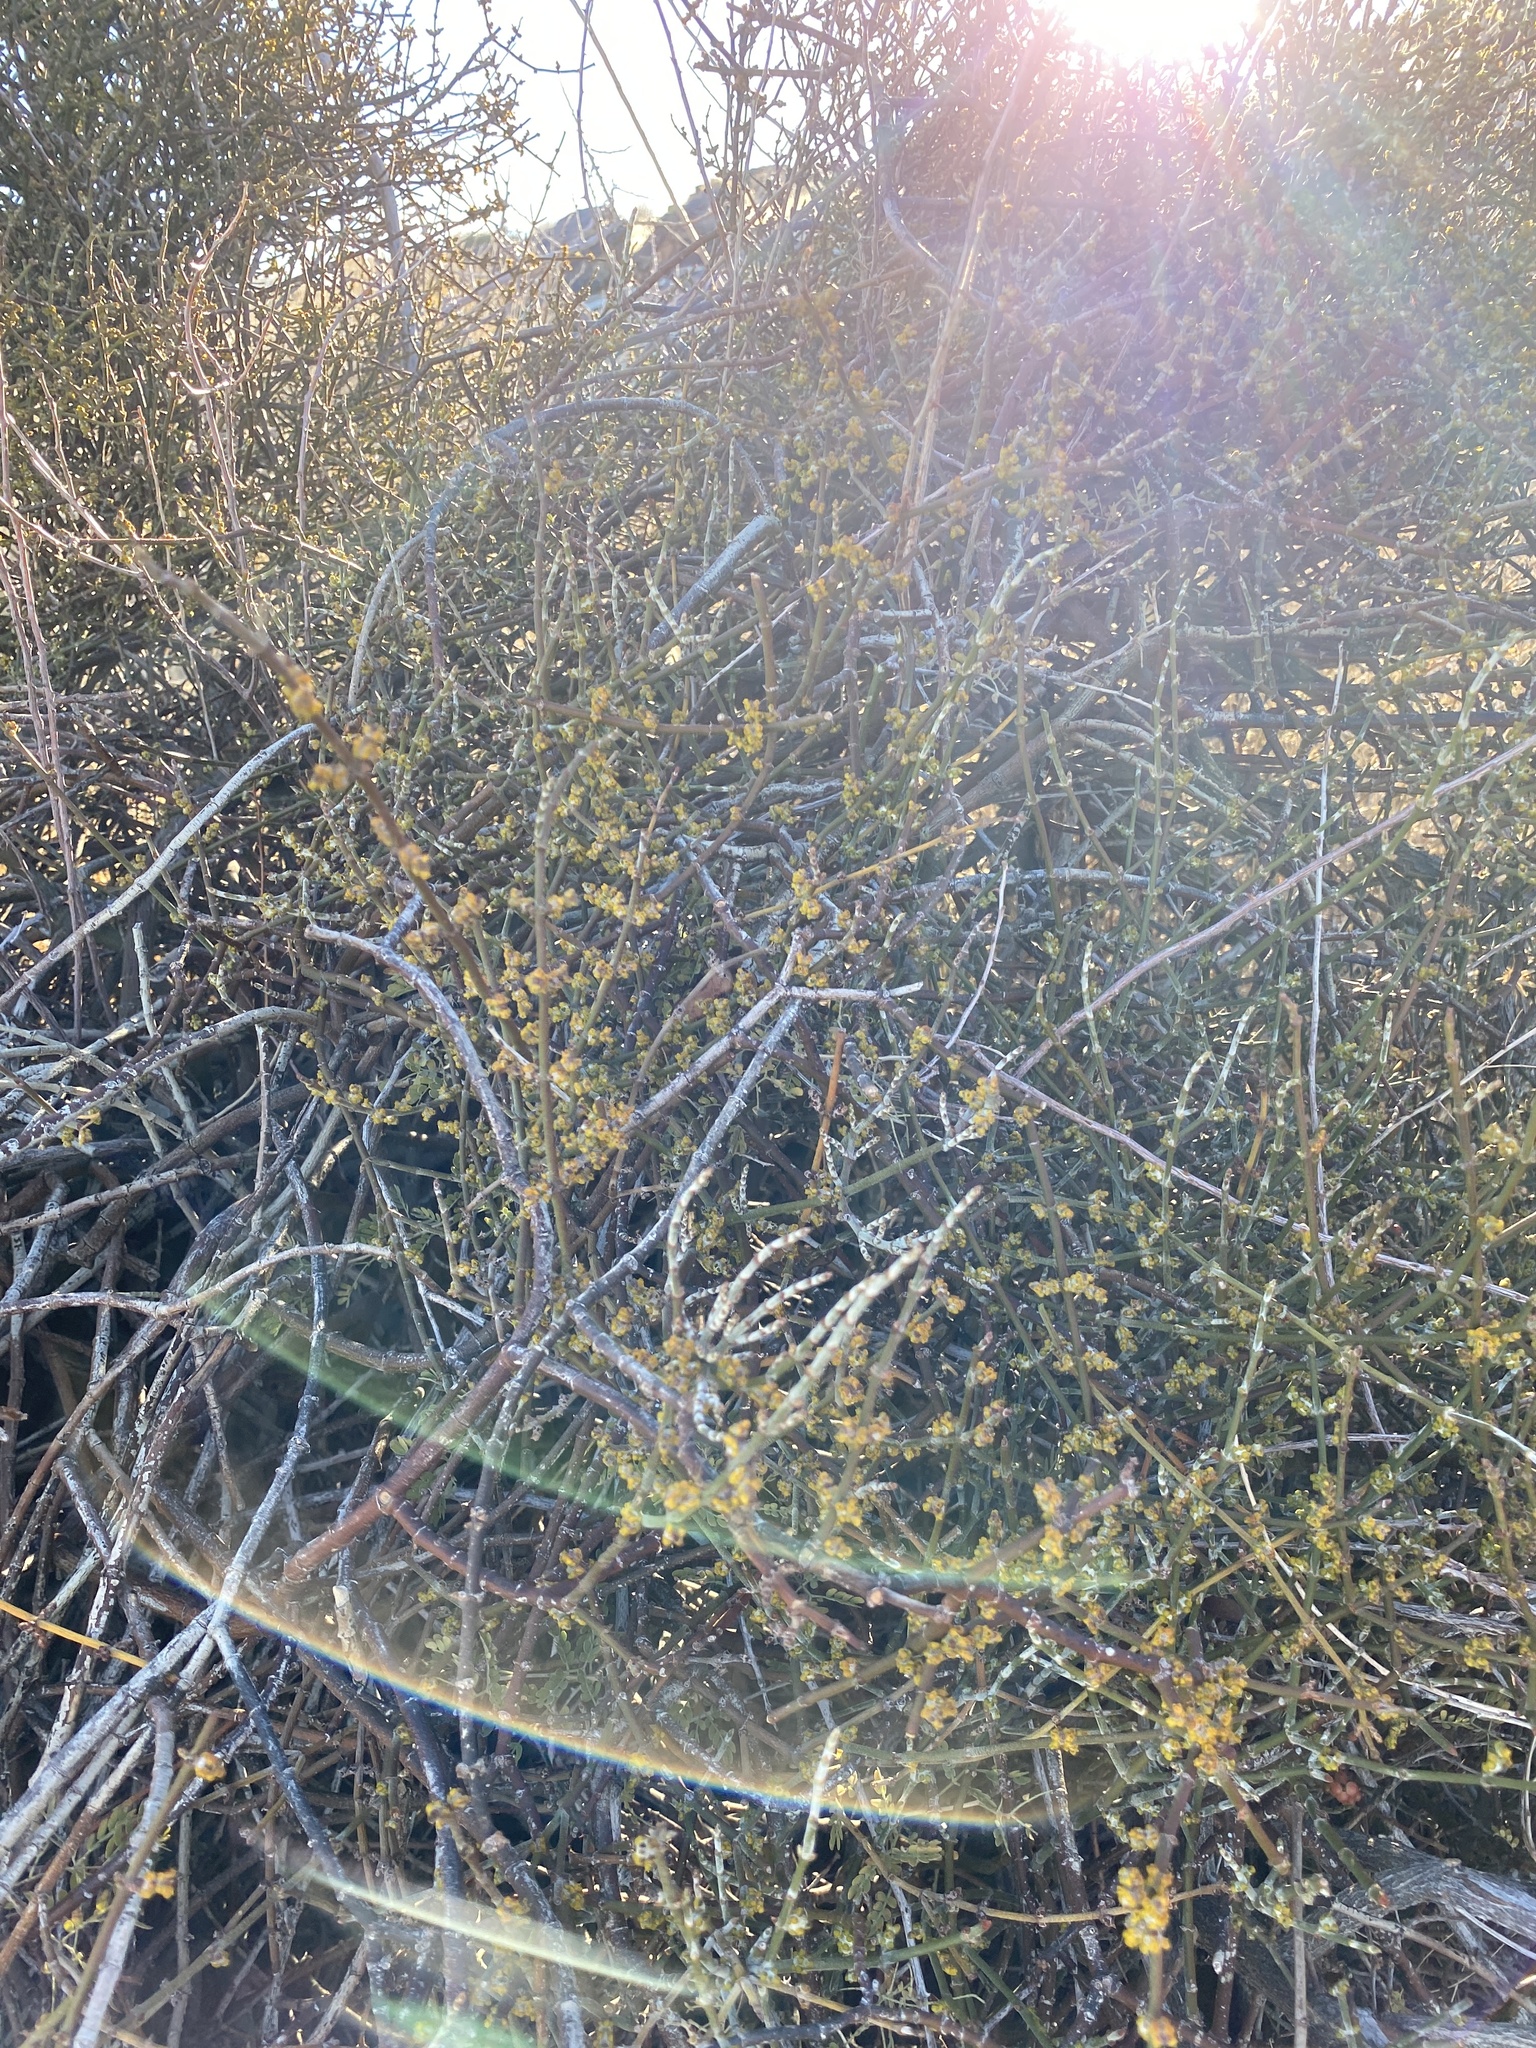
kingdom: Plantae
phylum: Tracheophyta
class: Magnoliopsida
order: Fabales
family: Fabaceae
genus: Senegalia
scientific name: Senegalia greggii
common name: Texas-mimosa
